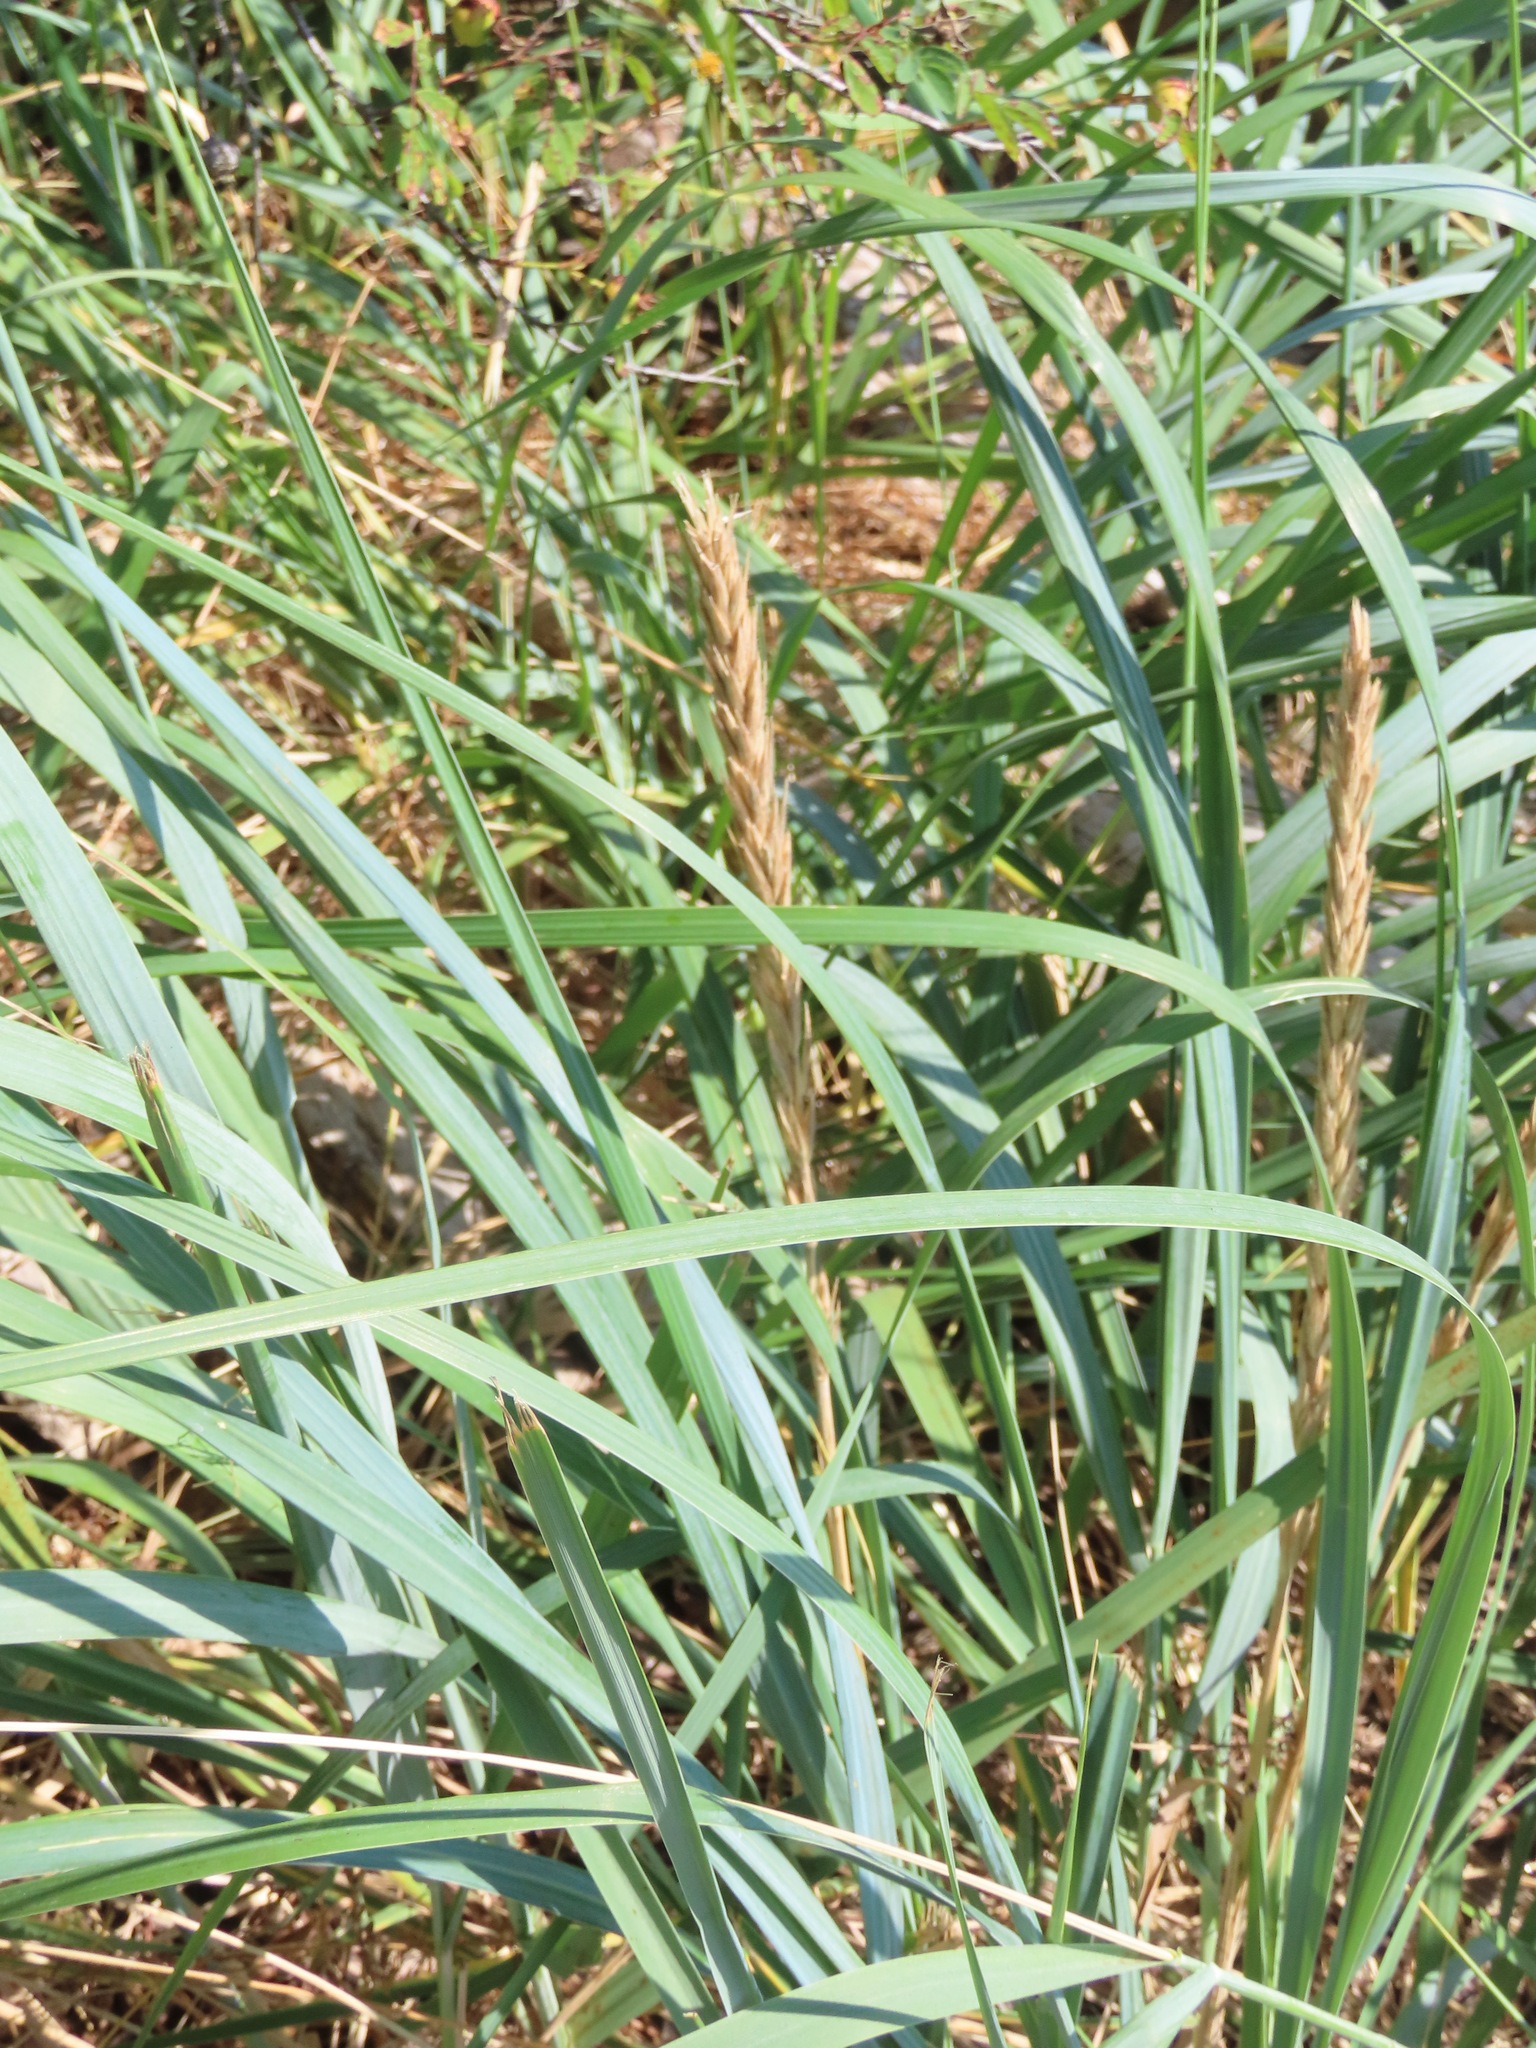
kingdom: Plantae
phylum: Tracheophyta
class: Liliopsida
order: Poales
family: Poaceae
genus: Leymus
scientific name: Leymus mollis
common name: American dune grass
